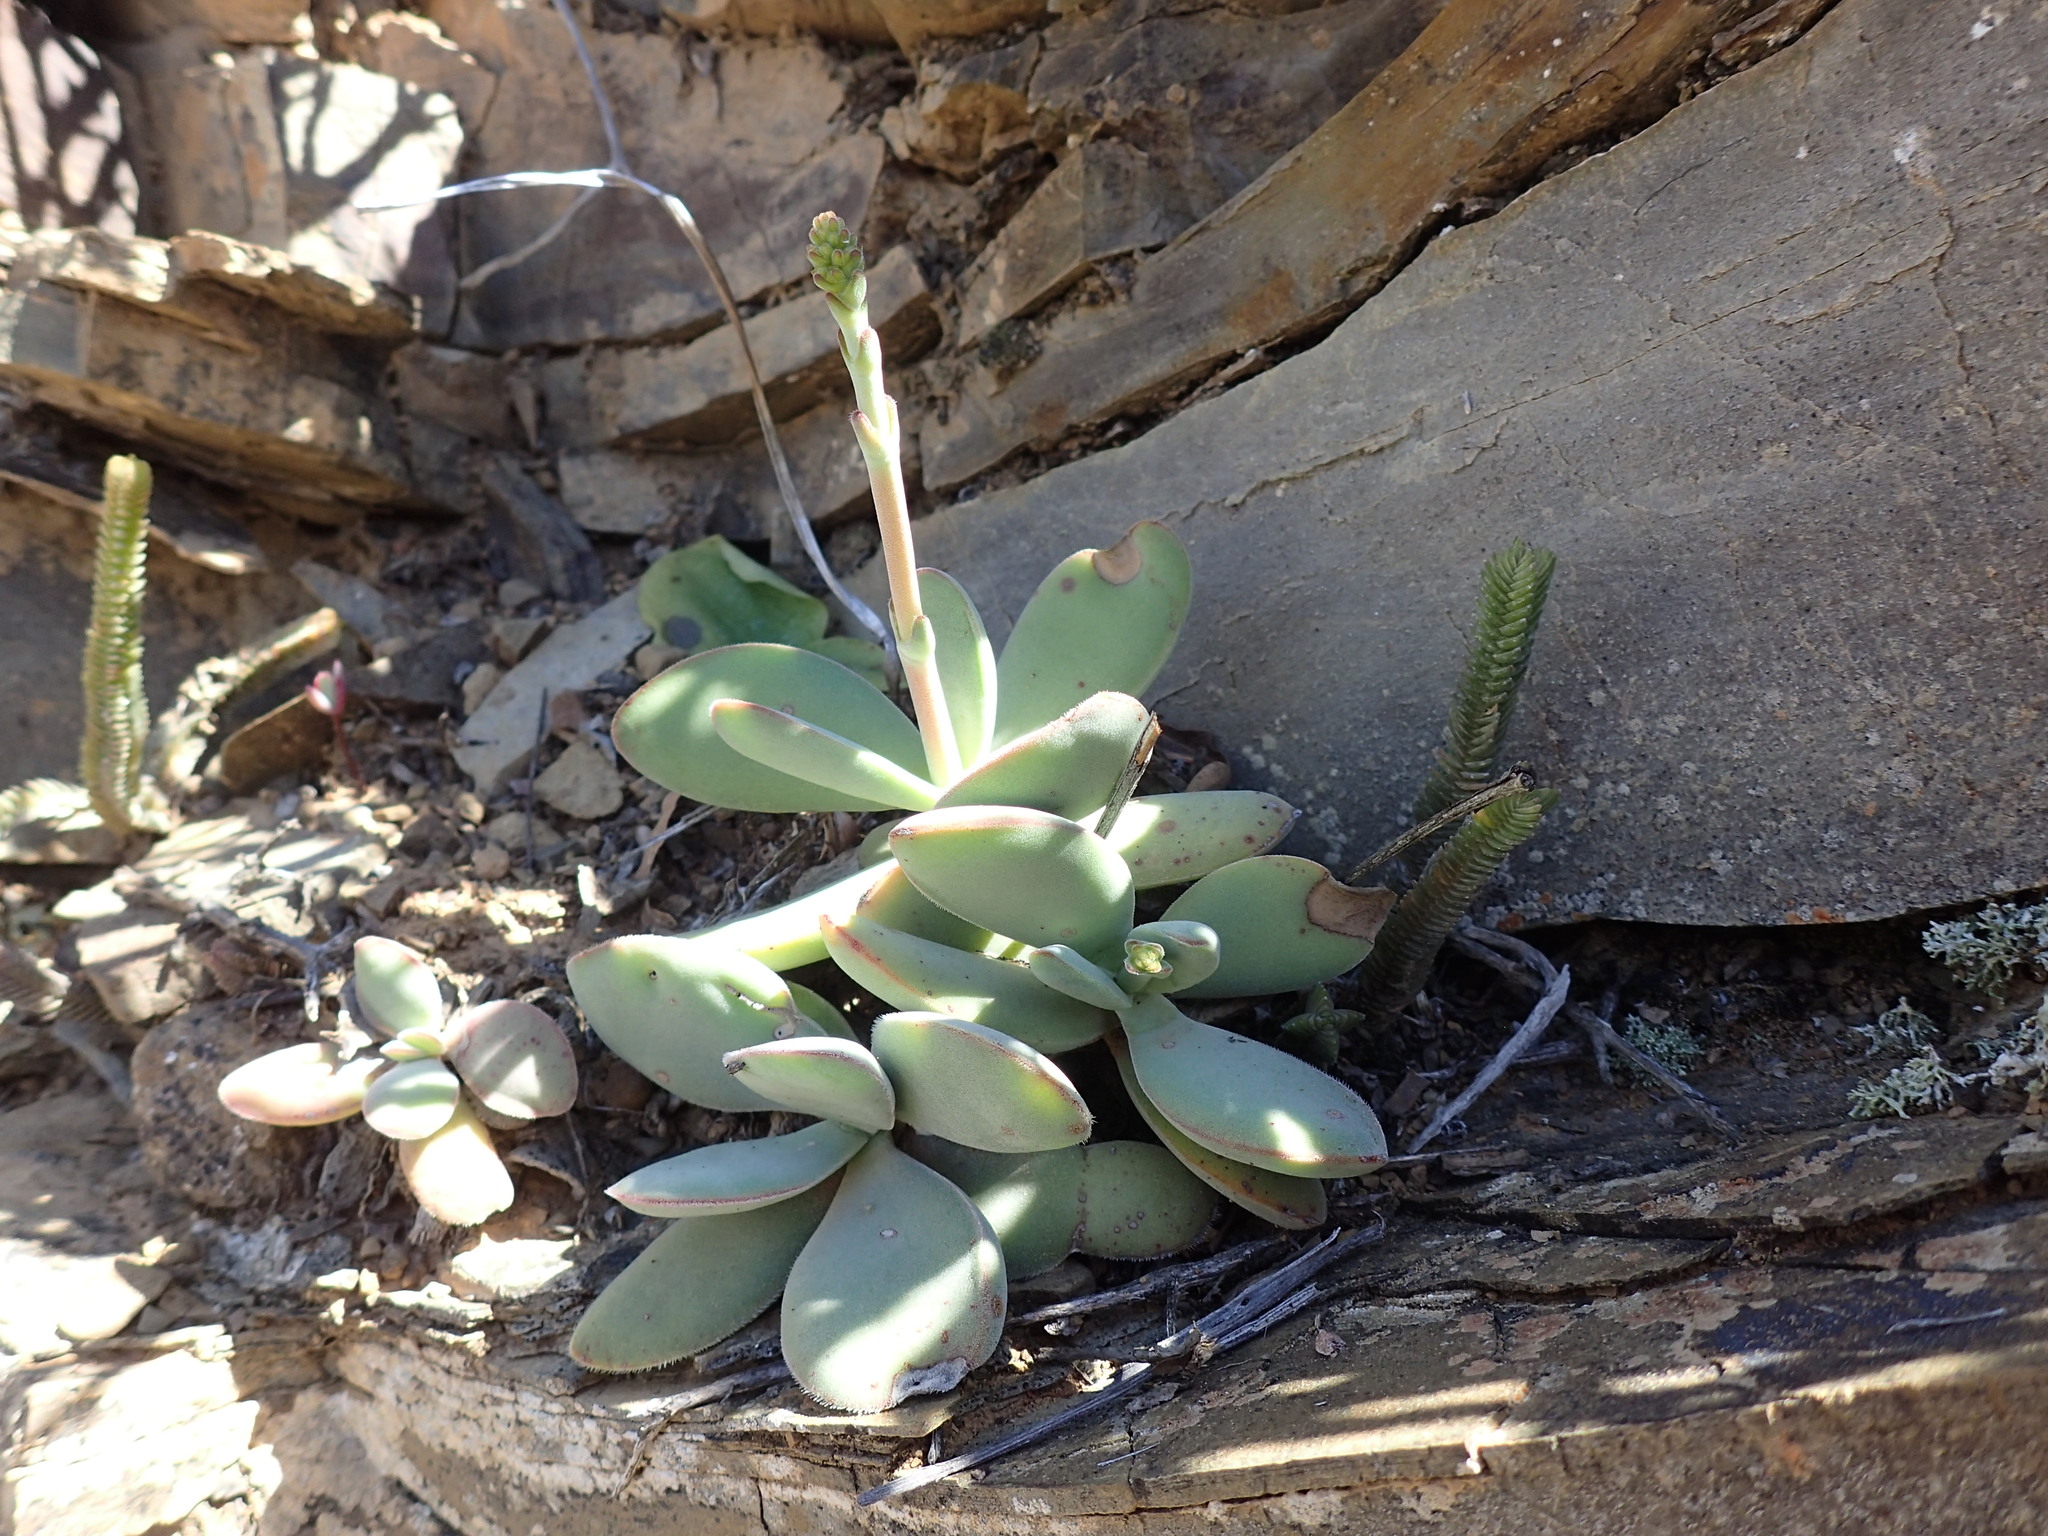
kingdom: Plantae
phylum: Tracheophyta
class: Magnoliopsida
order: Saxifragales
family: Crassulaceae
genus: Crassula
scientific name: Crassula cotyledonis
